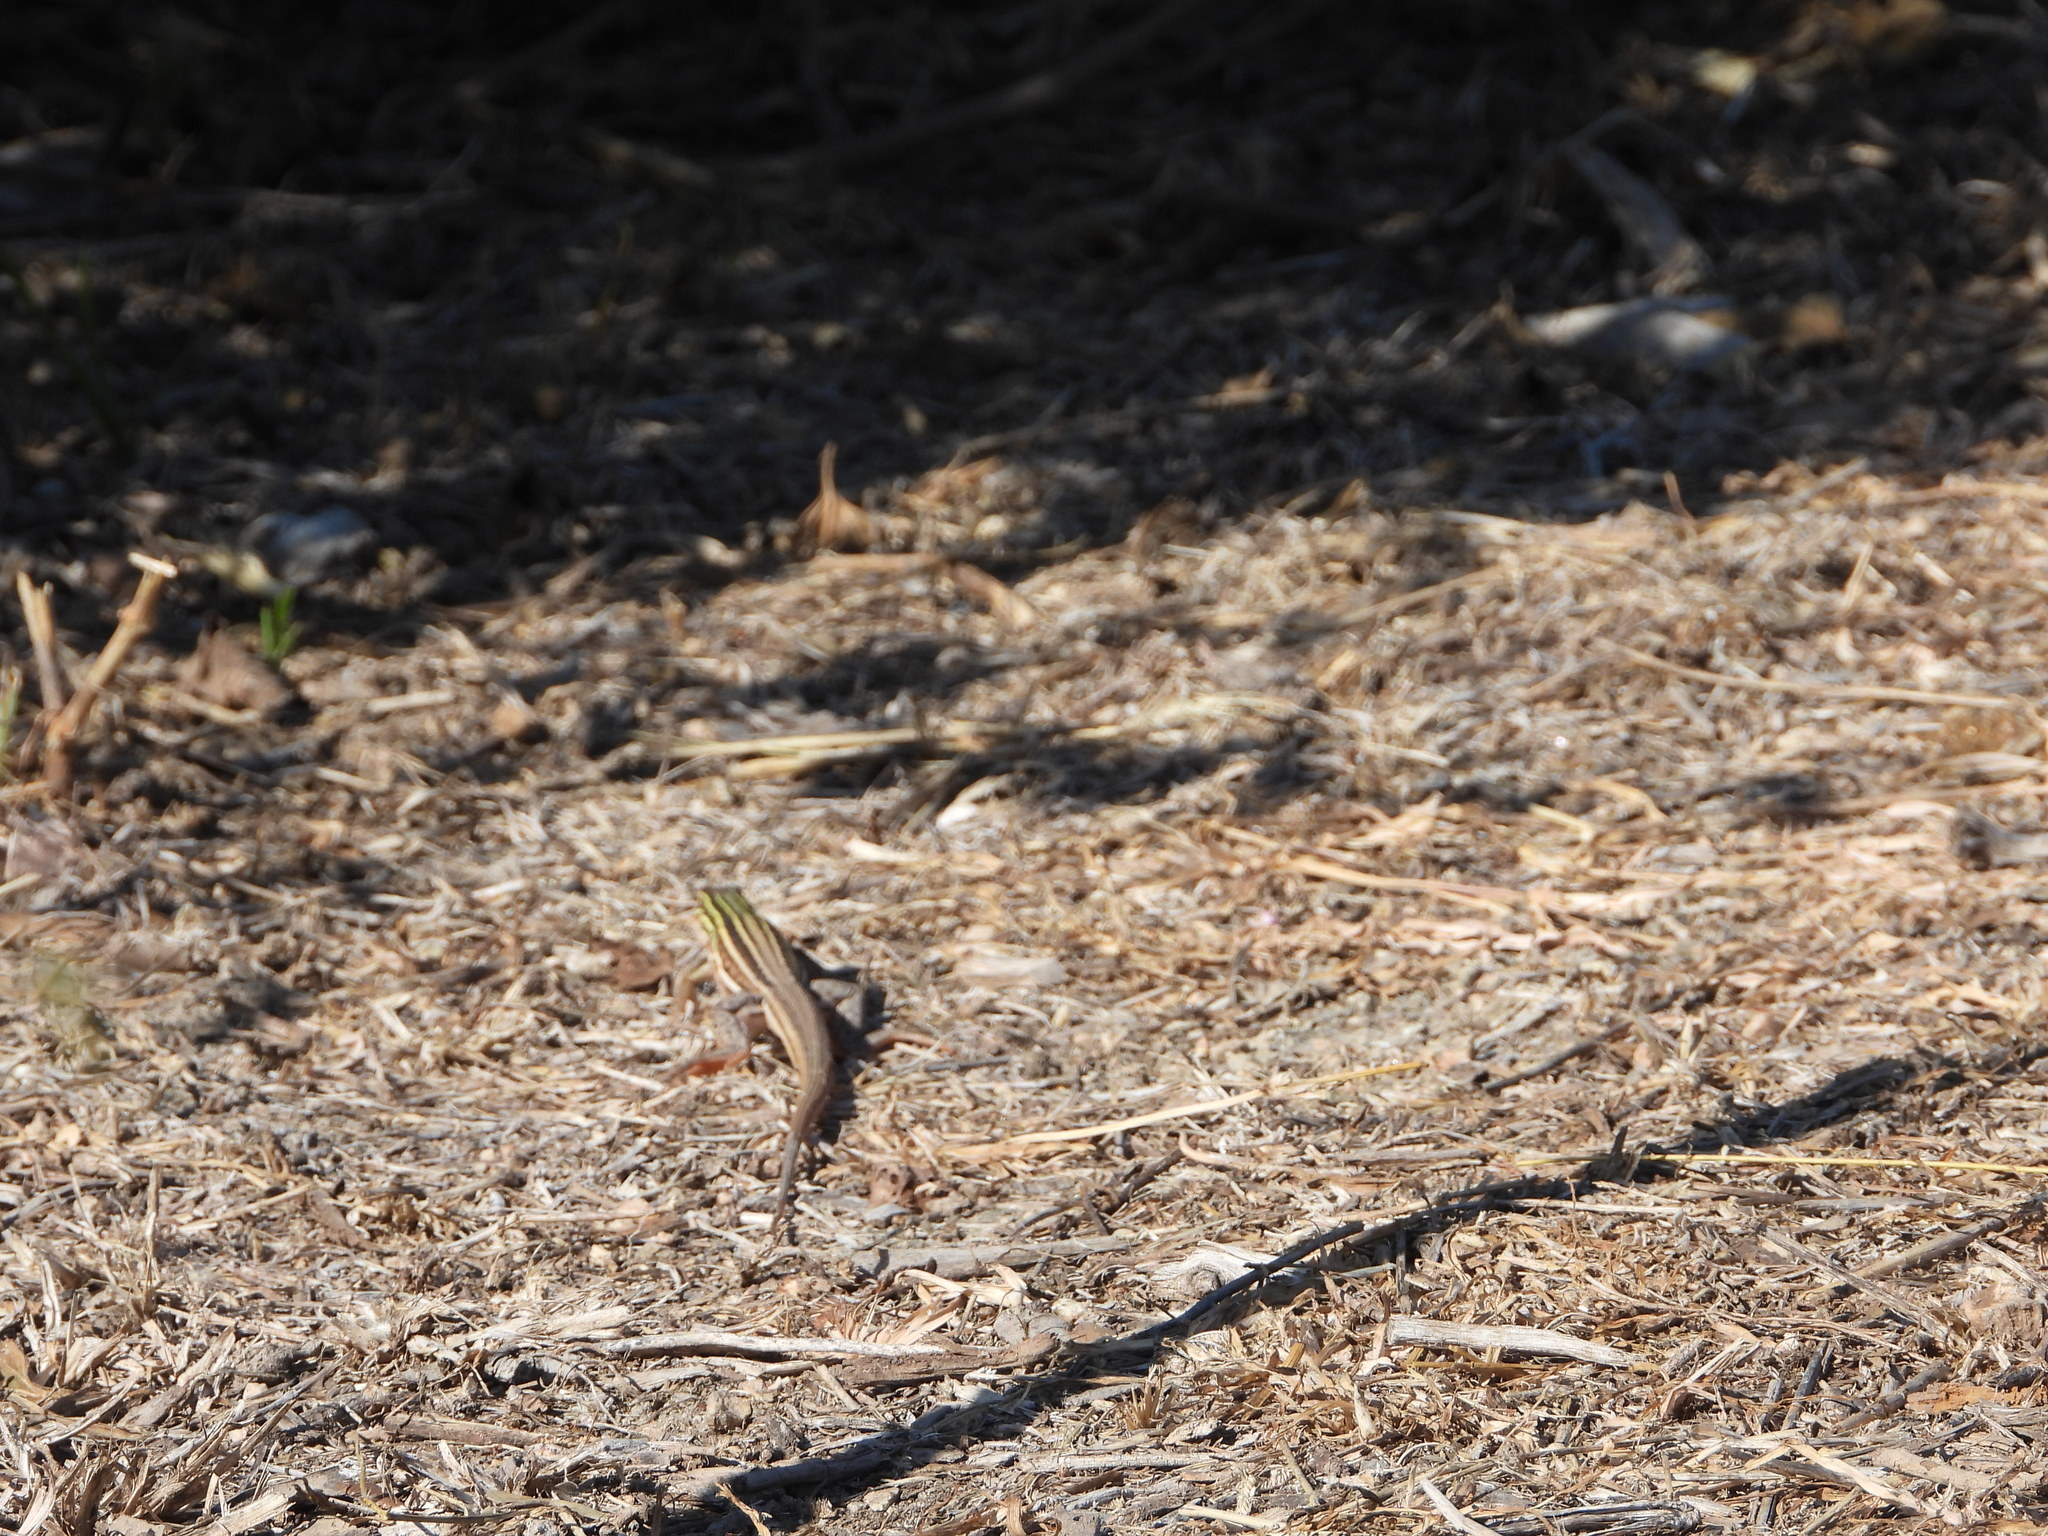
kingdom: Animalia
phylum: Chordata
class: Squamata
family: Teiidae
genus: Aspidoscelis
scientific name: Aspidoscelis gularis
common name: Eastern spotted whiptail
